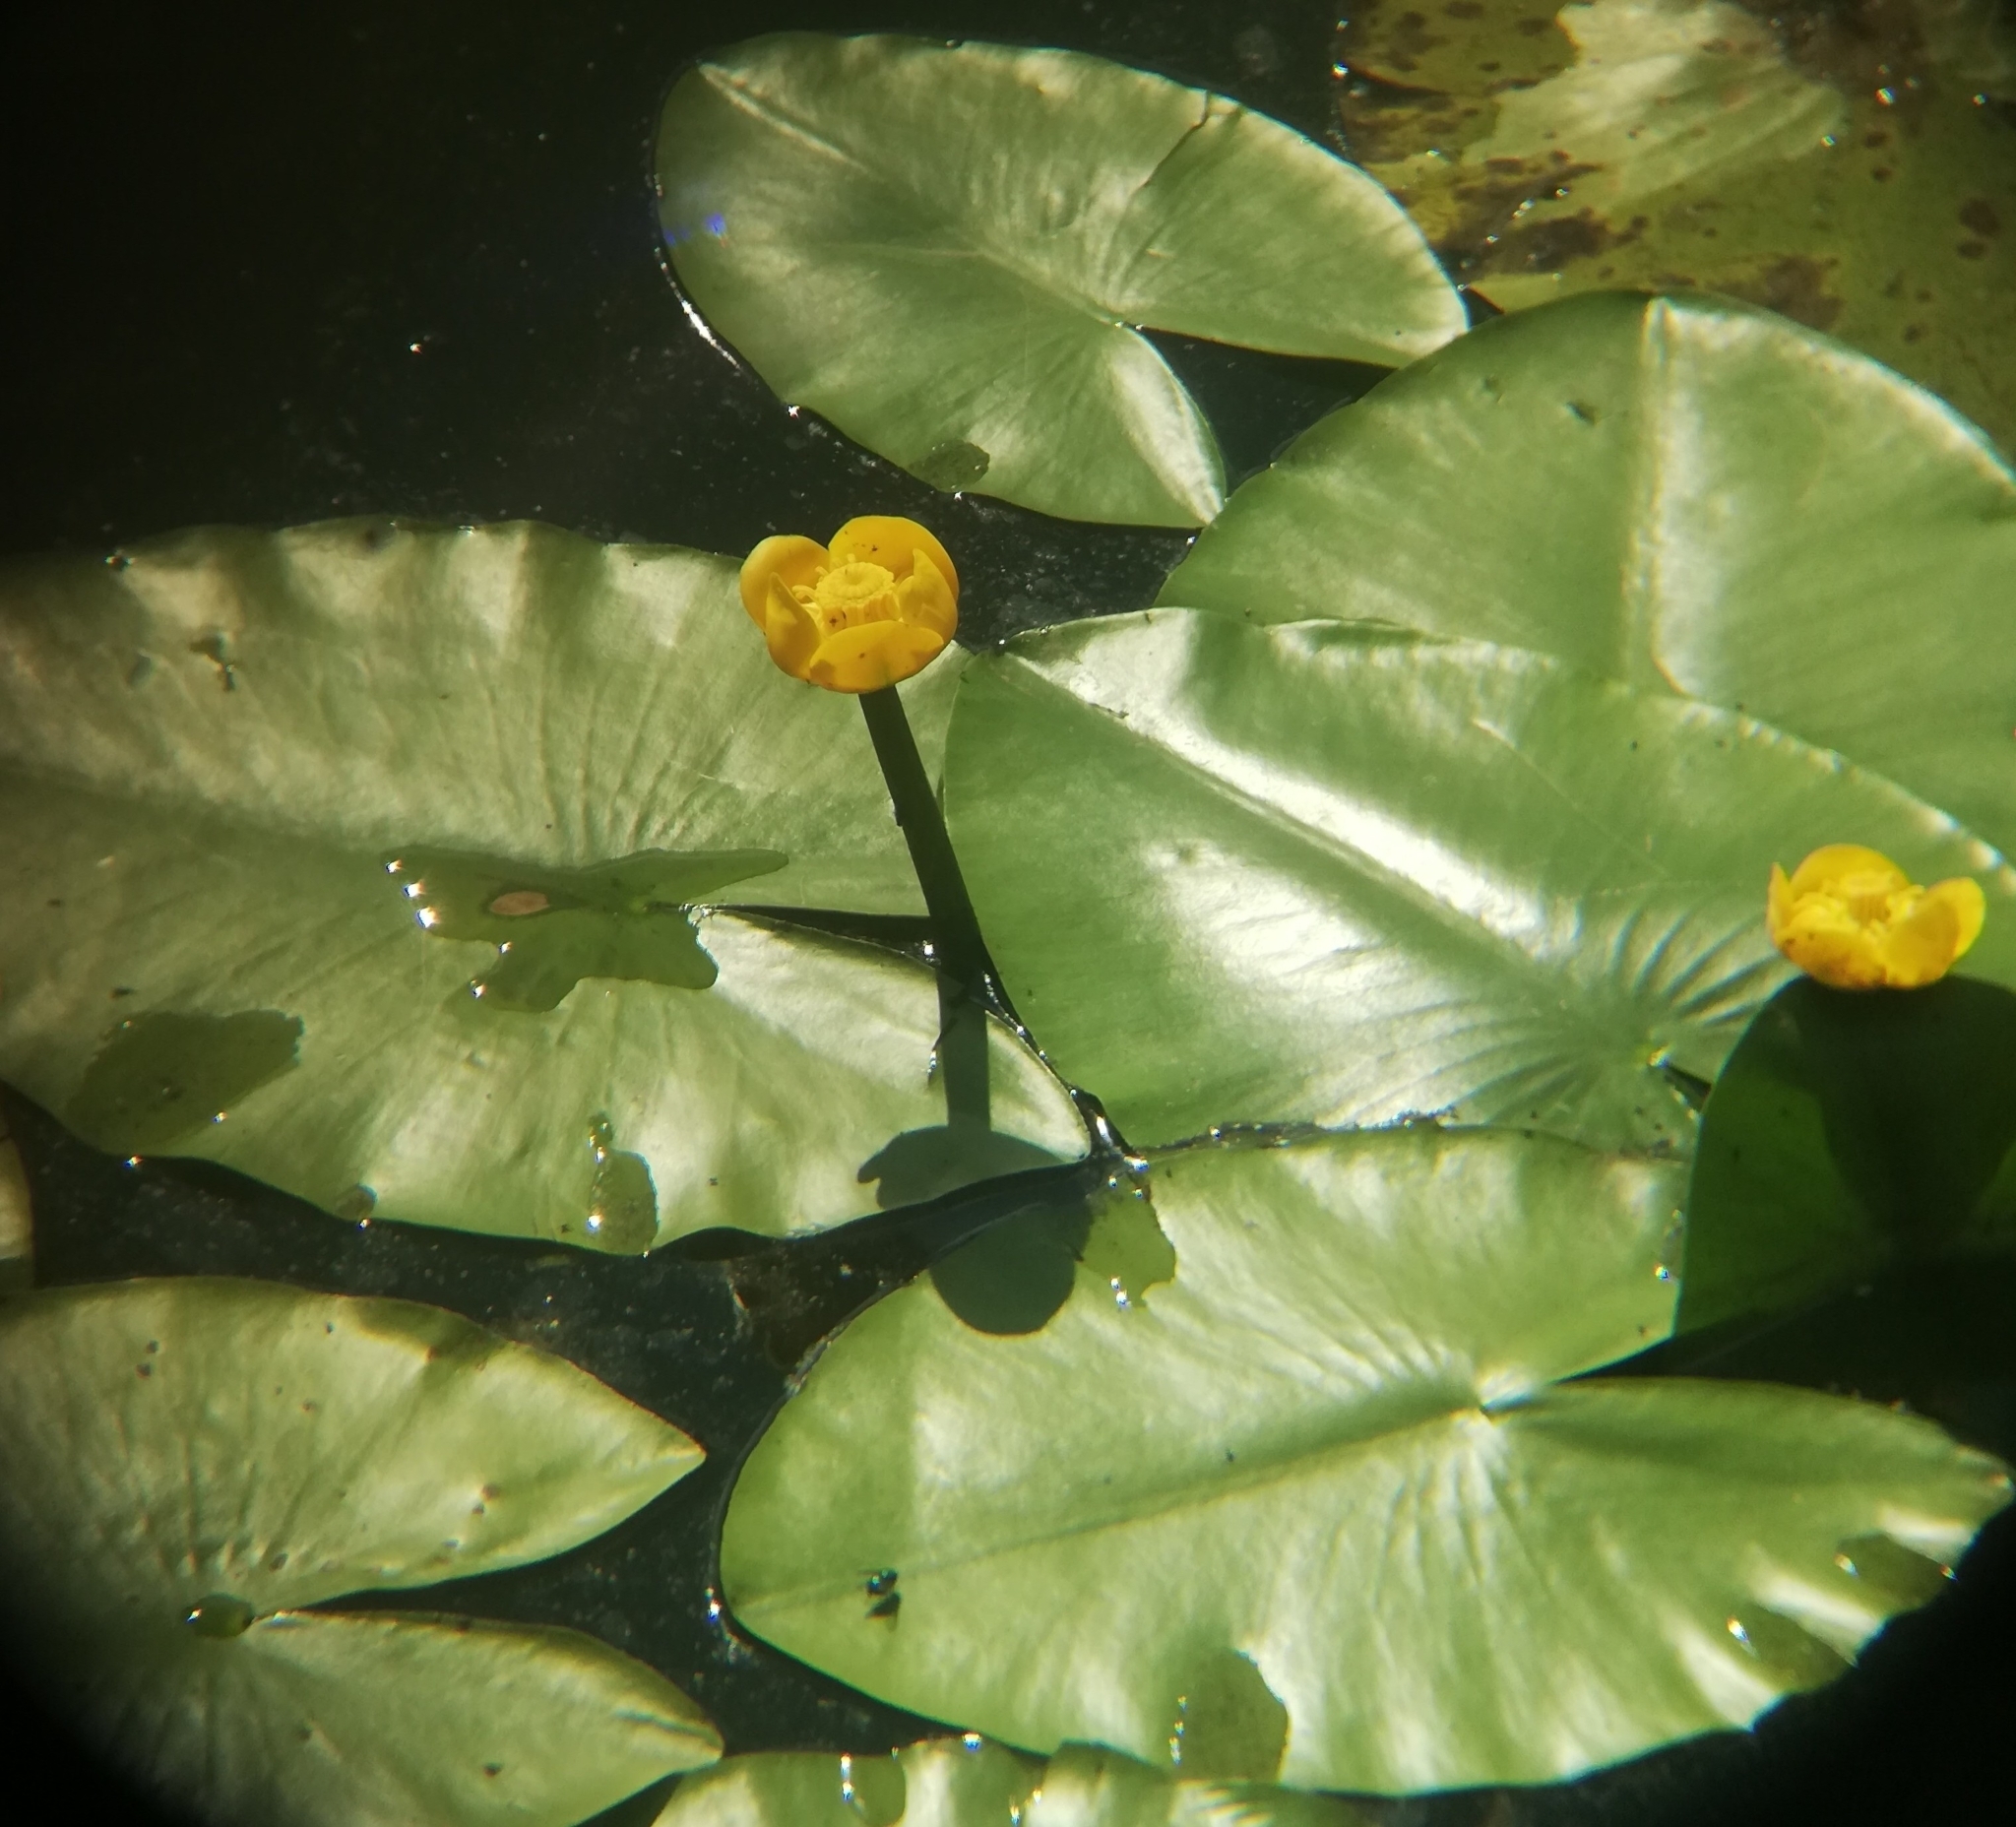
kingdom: Plantae
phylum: Tracheophyta
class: Magnoliopsida
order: Nymphaeales
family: Nymphaeaceae
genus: Nuphar
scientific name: Nuphar lutea
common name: Yellow water-lily
